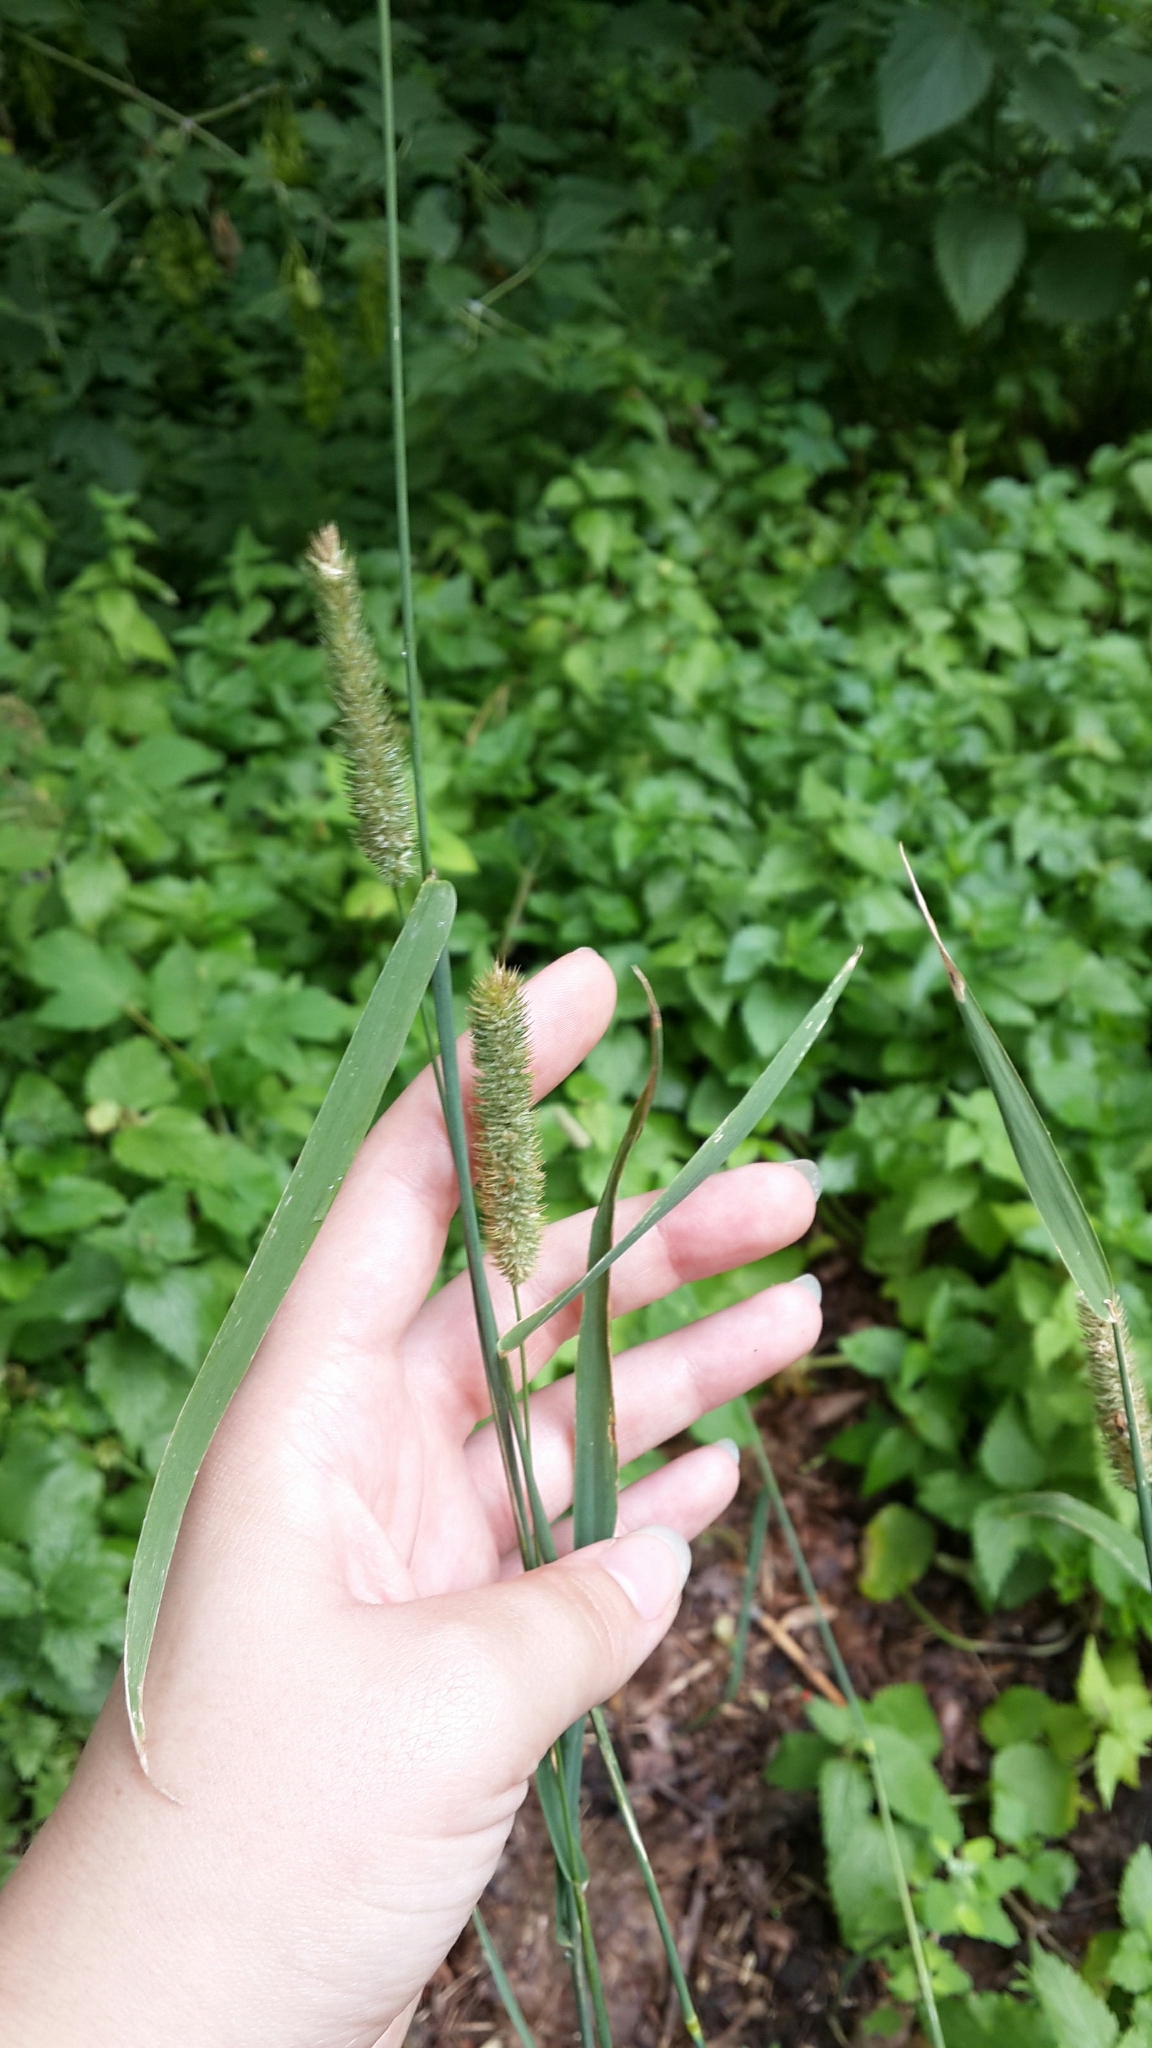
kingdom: Plantae
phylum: Tracheophyta
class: Liliopsida
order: Poales
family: Poaceae
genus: Phleum
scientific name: Phleum pratense
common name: Timothy grass
